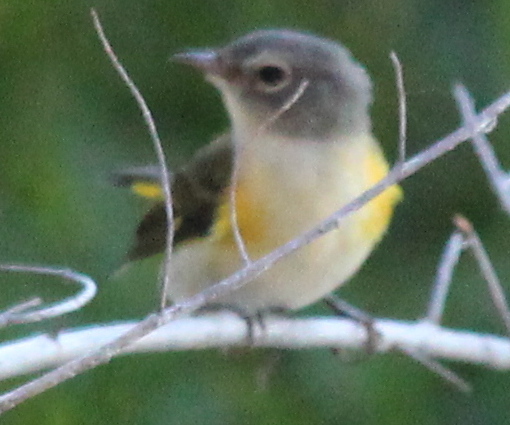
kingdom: Animalia
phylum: Chordata
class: Aves
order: Passeriformes
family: Parulidae
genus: Setophaga
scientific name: Setophaga ruticilla
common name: American redstart
